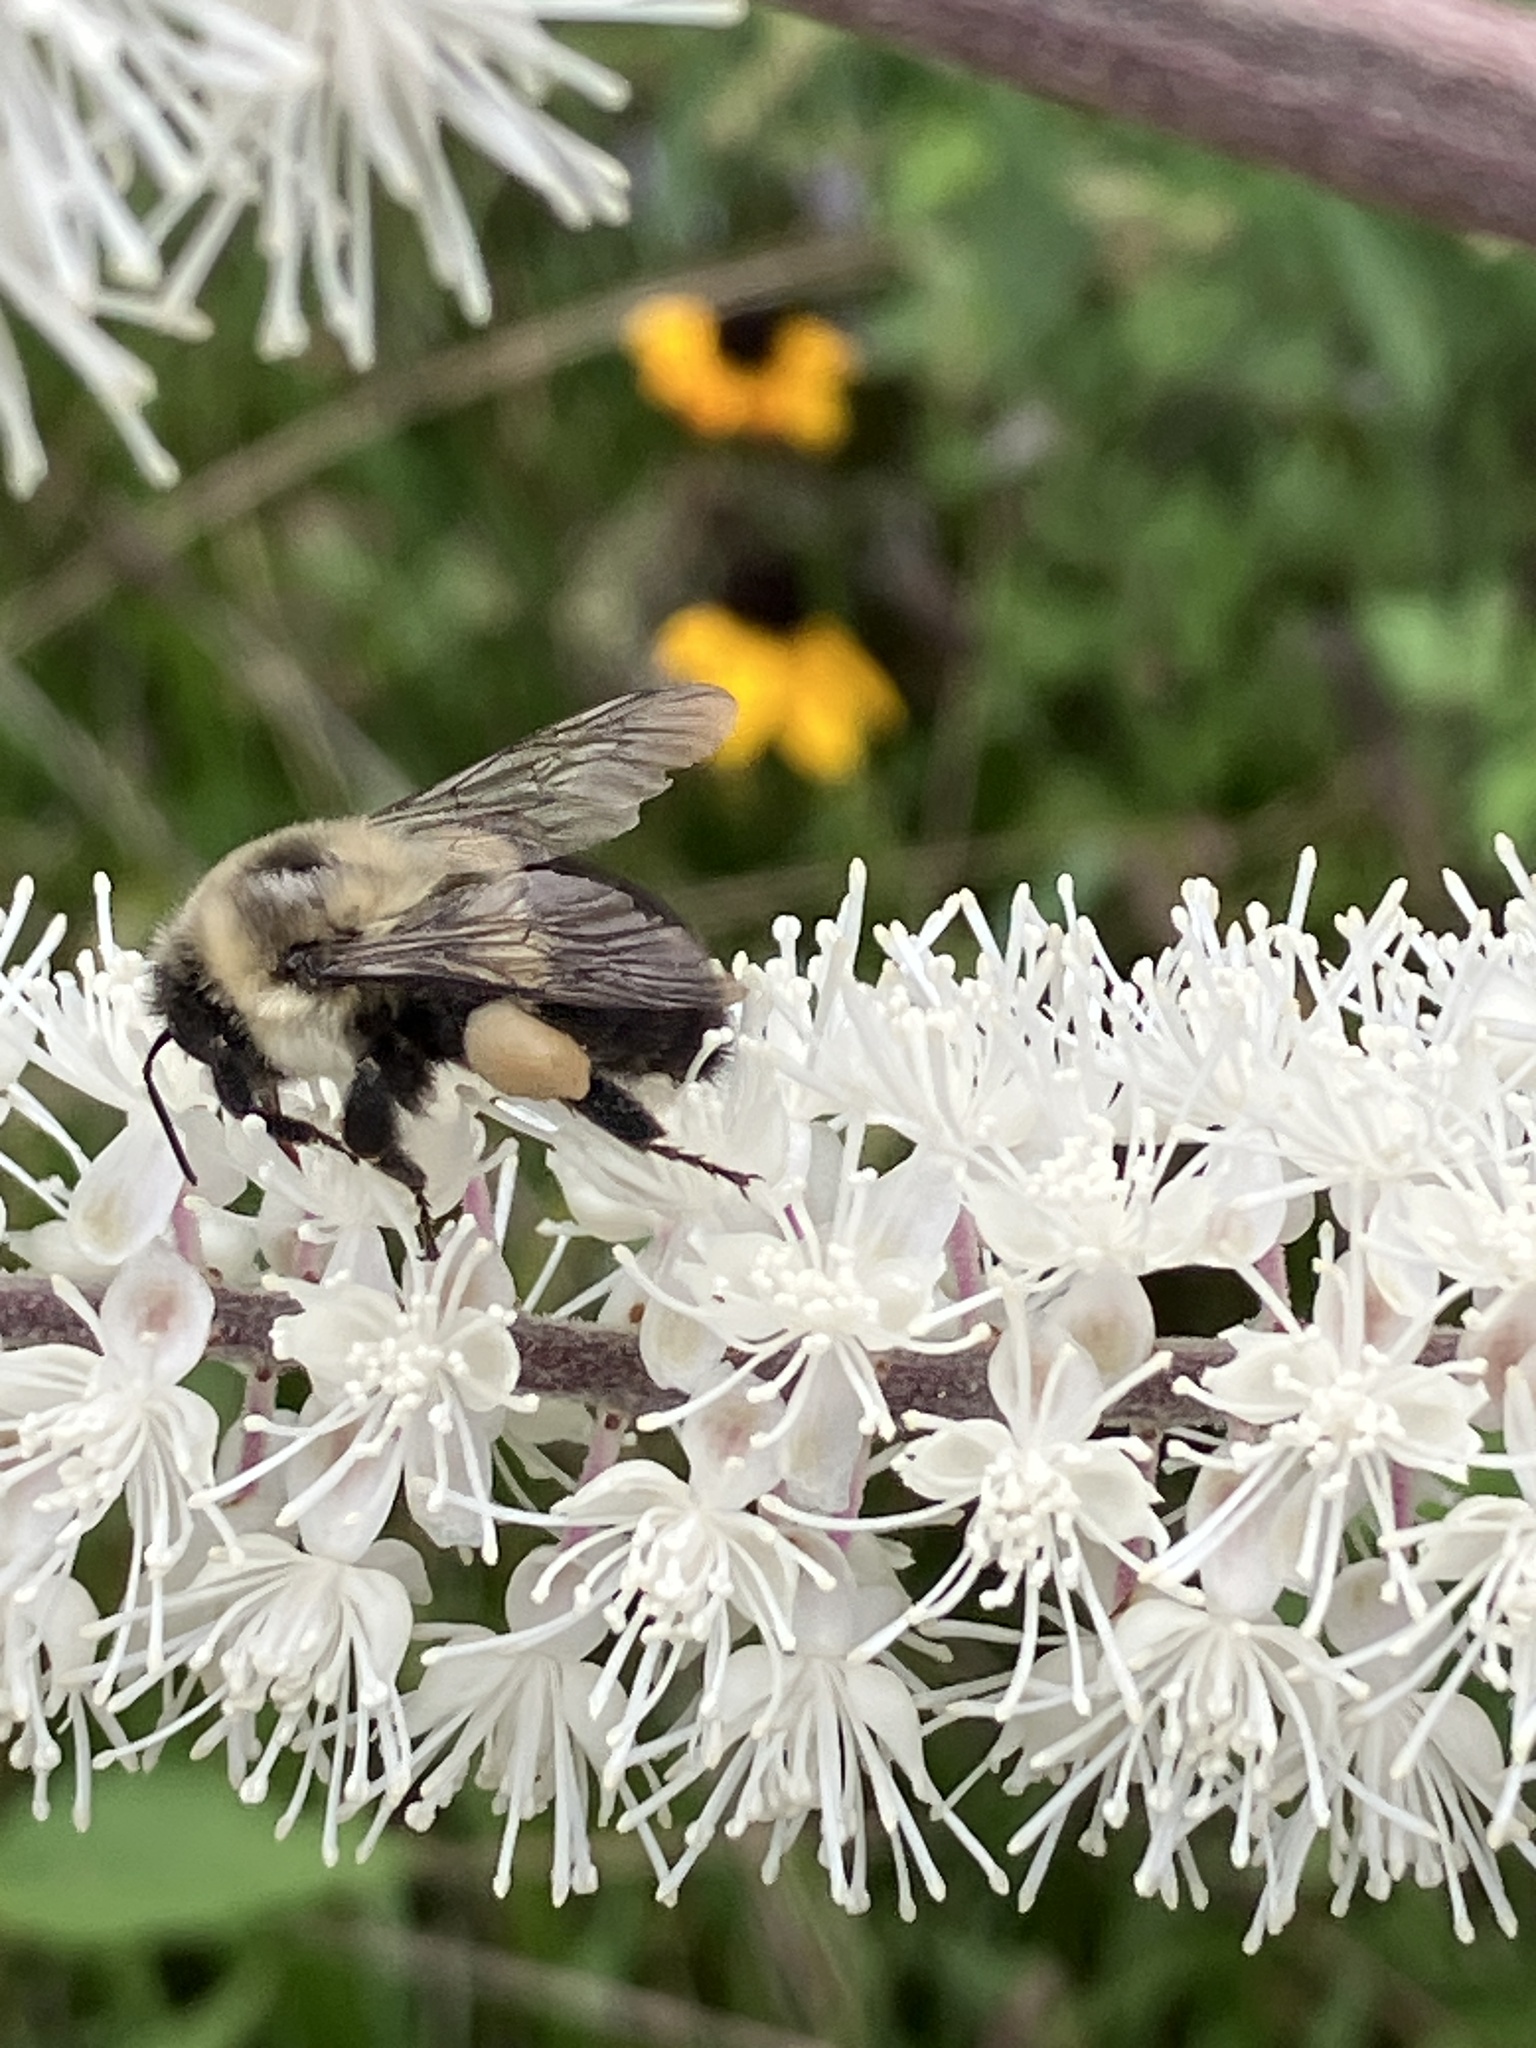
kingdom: Animalia
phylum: Arthropoda
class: Insecta
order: Hymenoptera
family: Apidae
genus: Bombus
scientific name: Bombus impatiens
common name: Common eastern bumble bee
